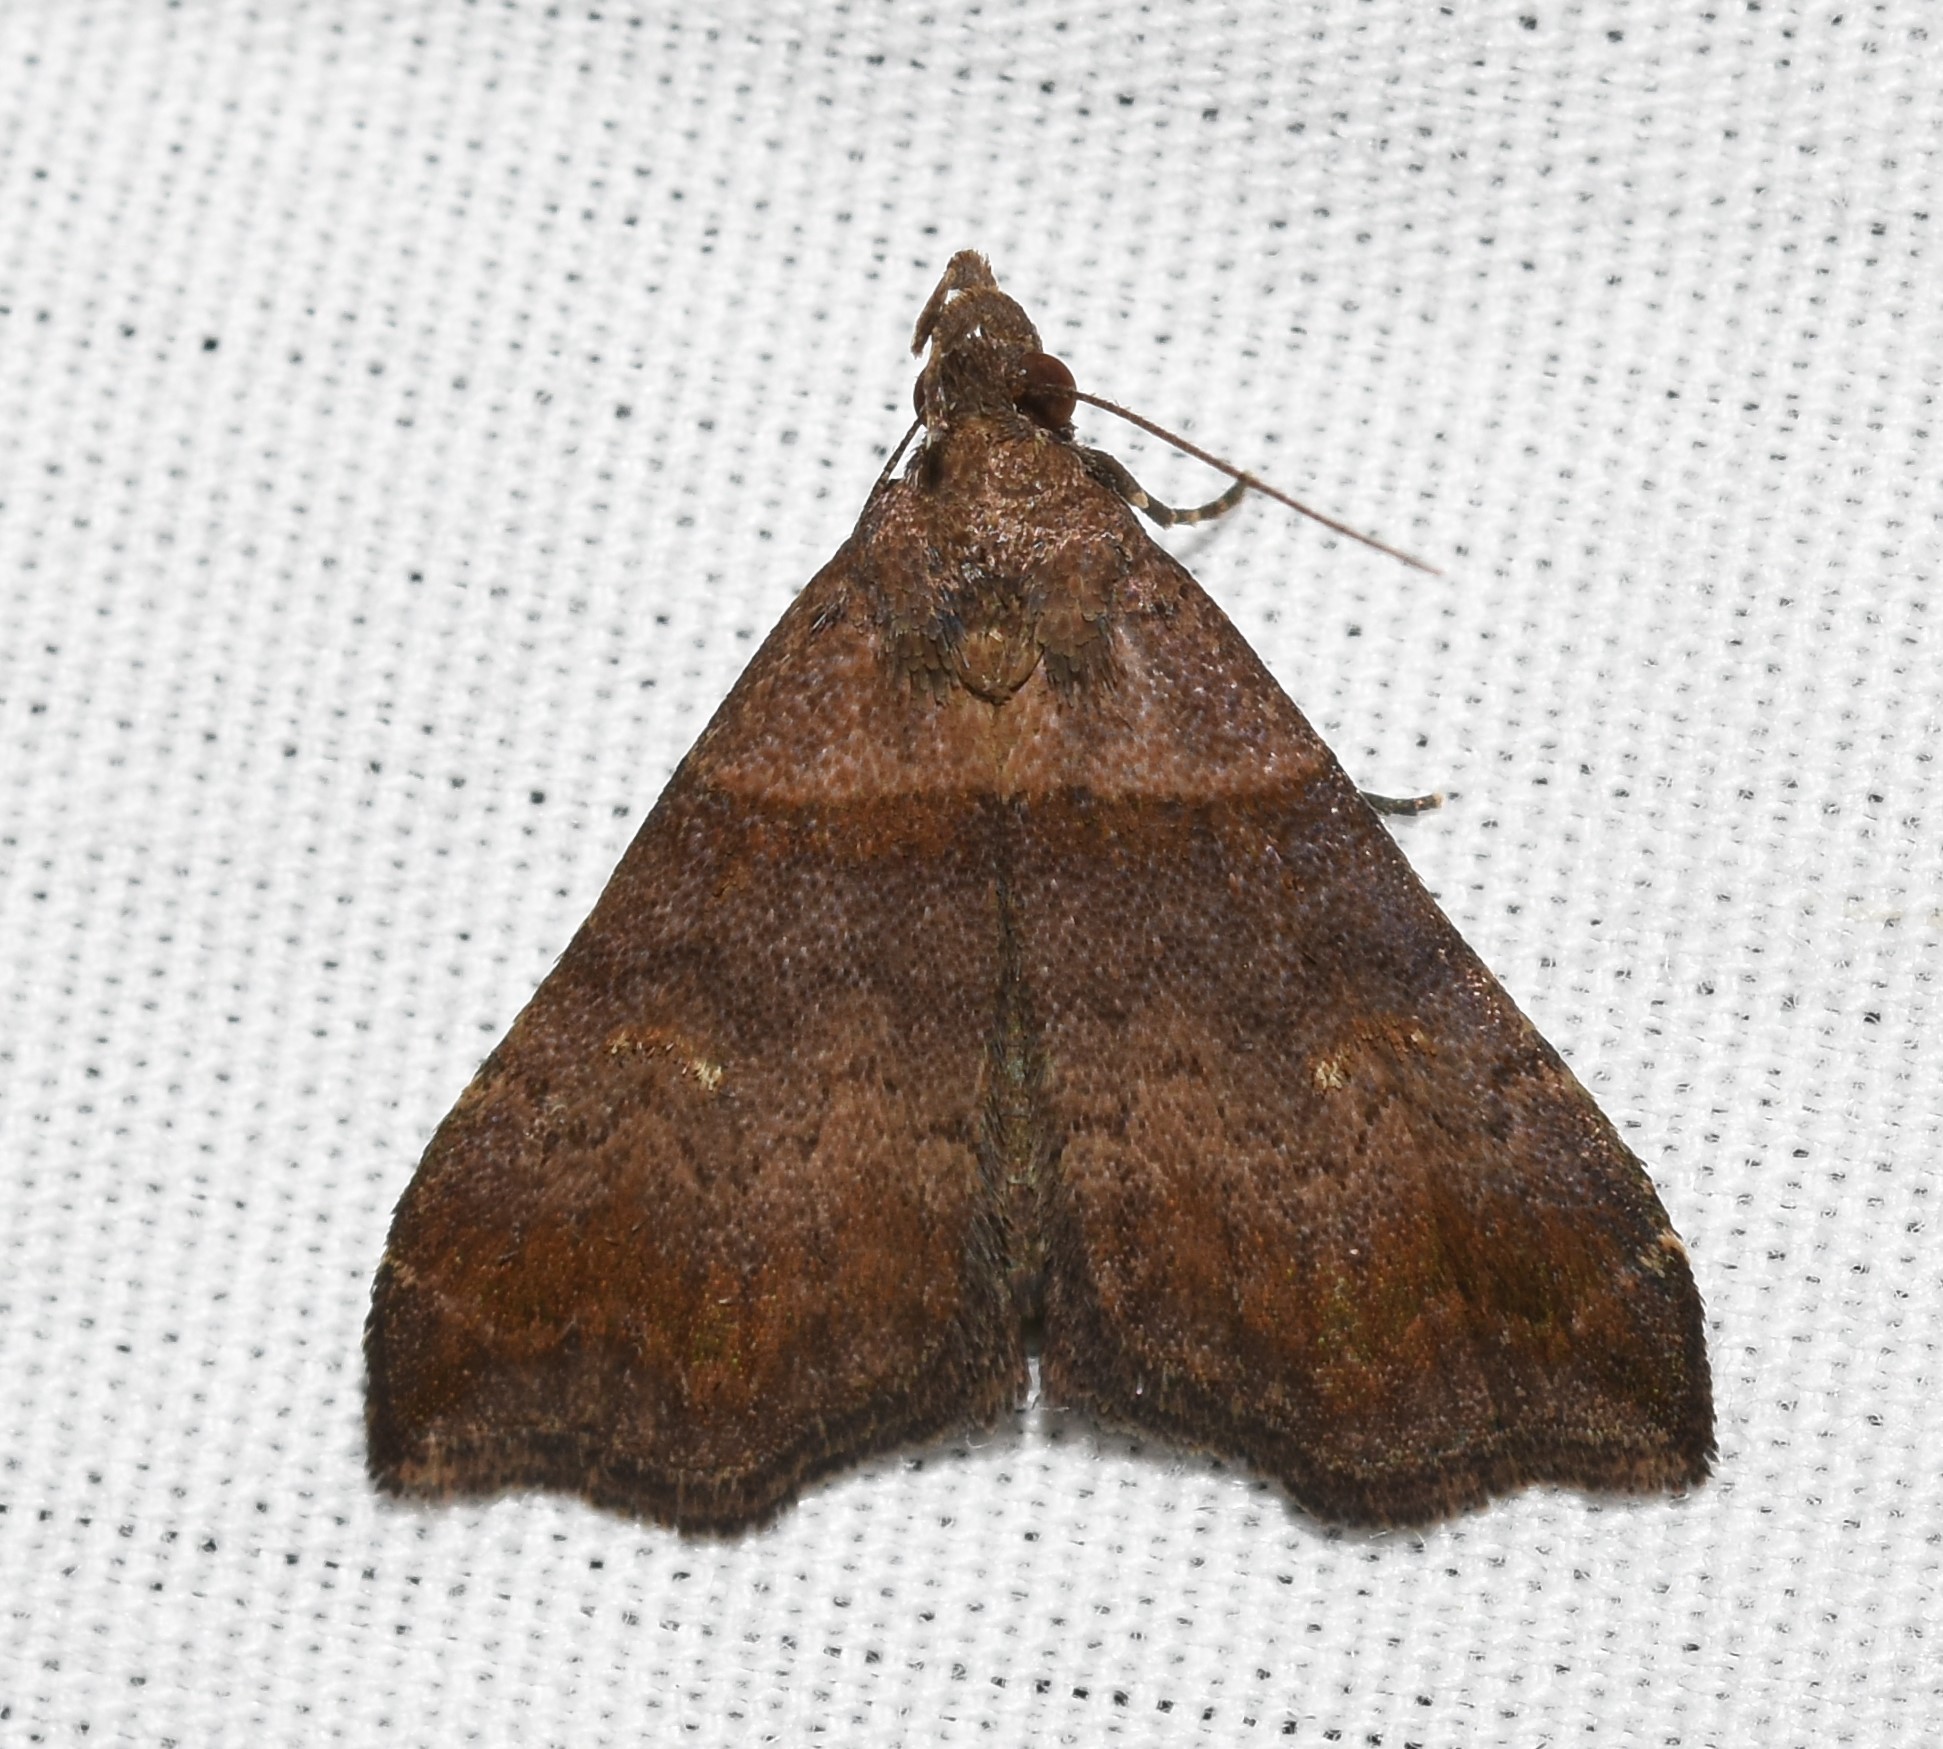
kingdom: Animalia
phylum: Arthropoda
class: Insecta
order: Lepidoptera
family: Erebidae
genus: Lascoria
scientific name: Lascoria ambigualis
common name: Ambiguous moth
